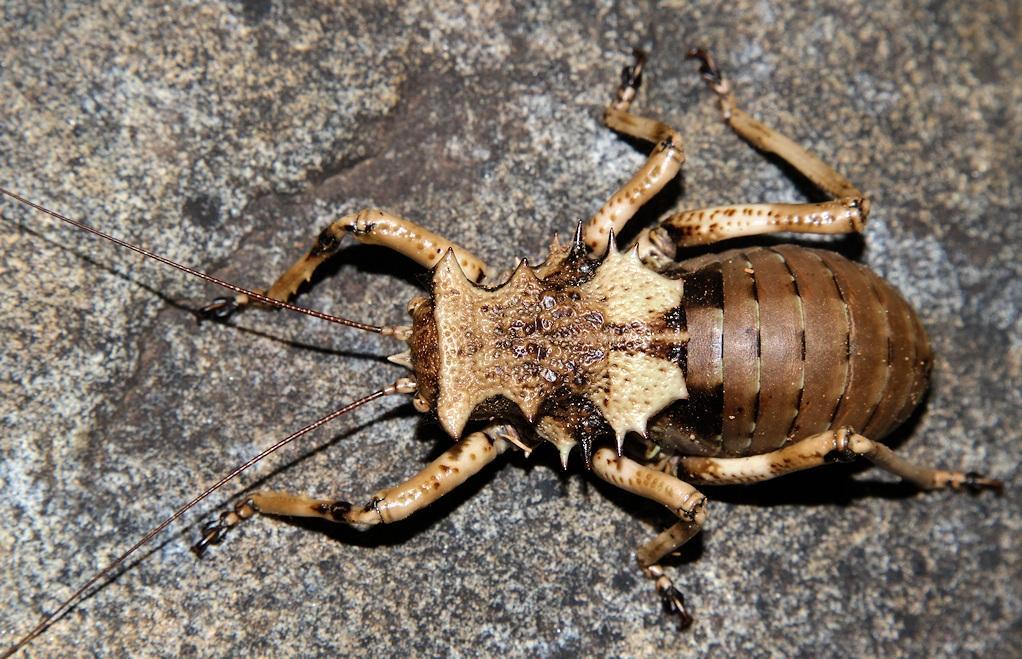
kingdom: Animalia
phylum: Arthropoda
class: Insecta
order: Orthoptera
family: Tettigoniidae
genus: Enyaliopsis
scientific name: Enyaliopsis transvaalensis
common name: Northern armoured katydid
